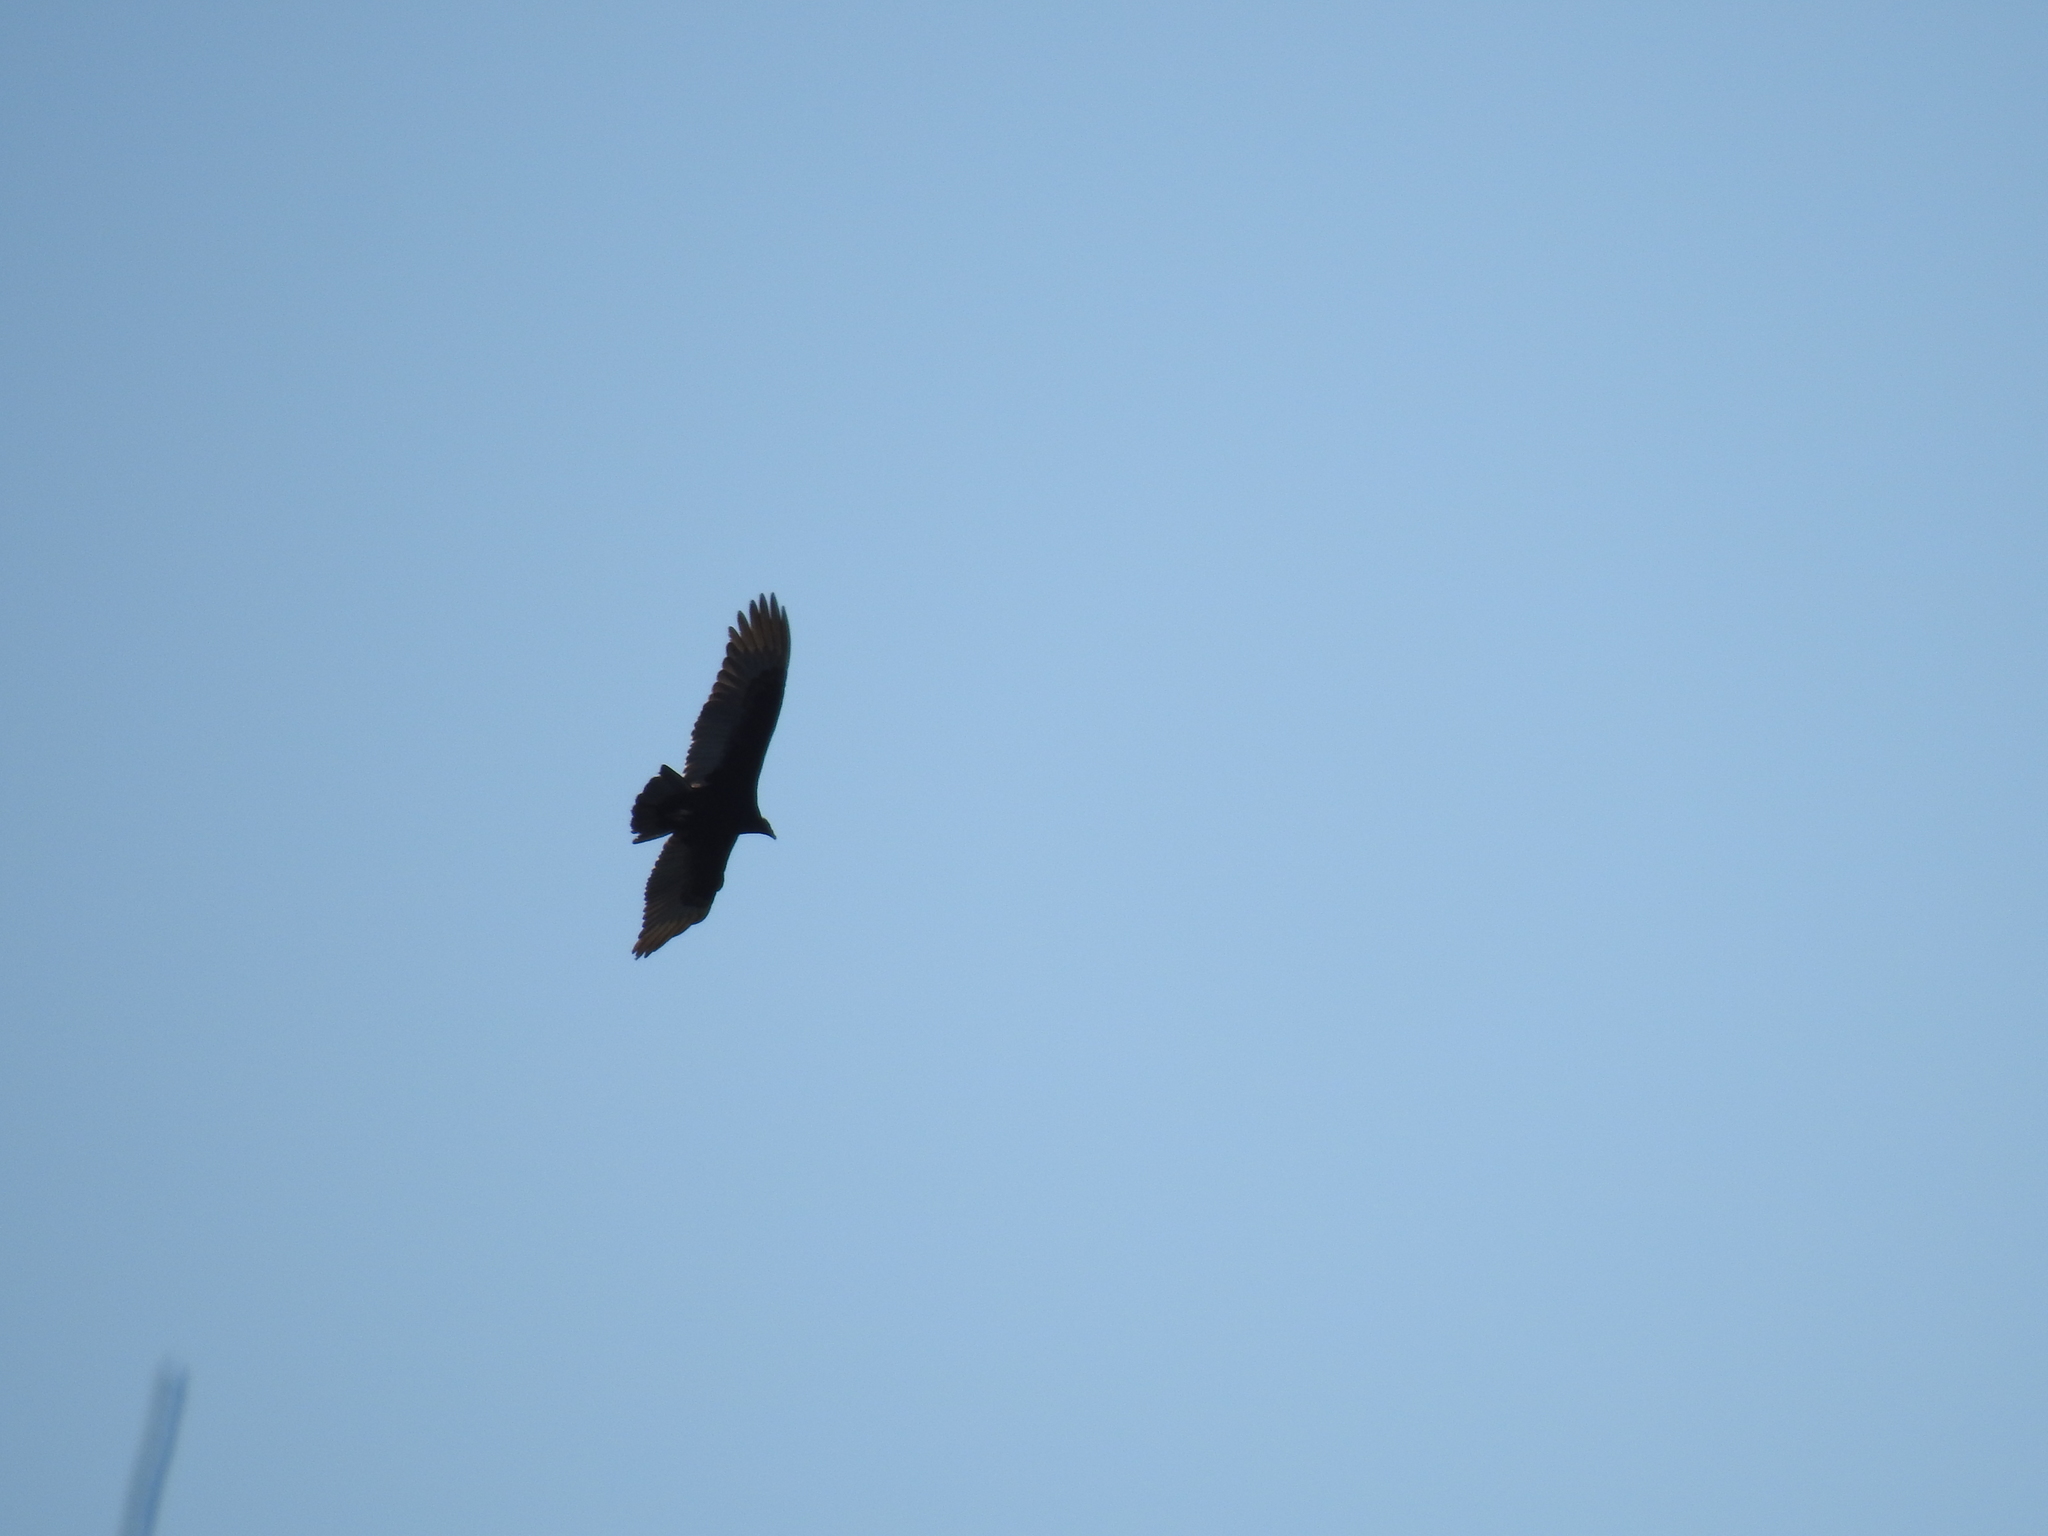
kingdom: Animalia
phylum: Chordata
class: Aves
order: Accipitriformes
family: Cathartidae
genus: Cathartes
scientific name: Cathartes aura
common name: Turkey vulture
